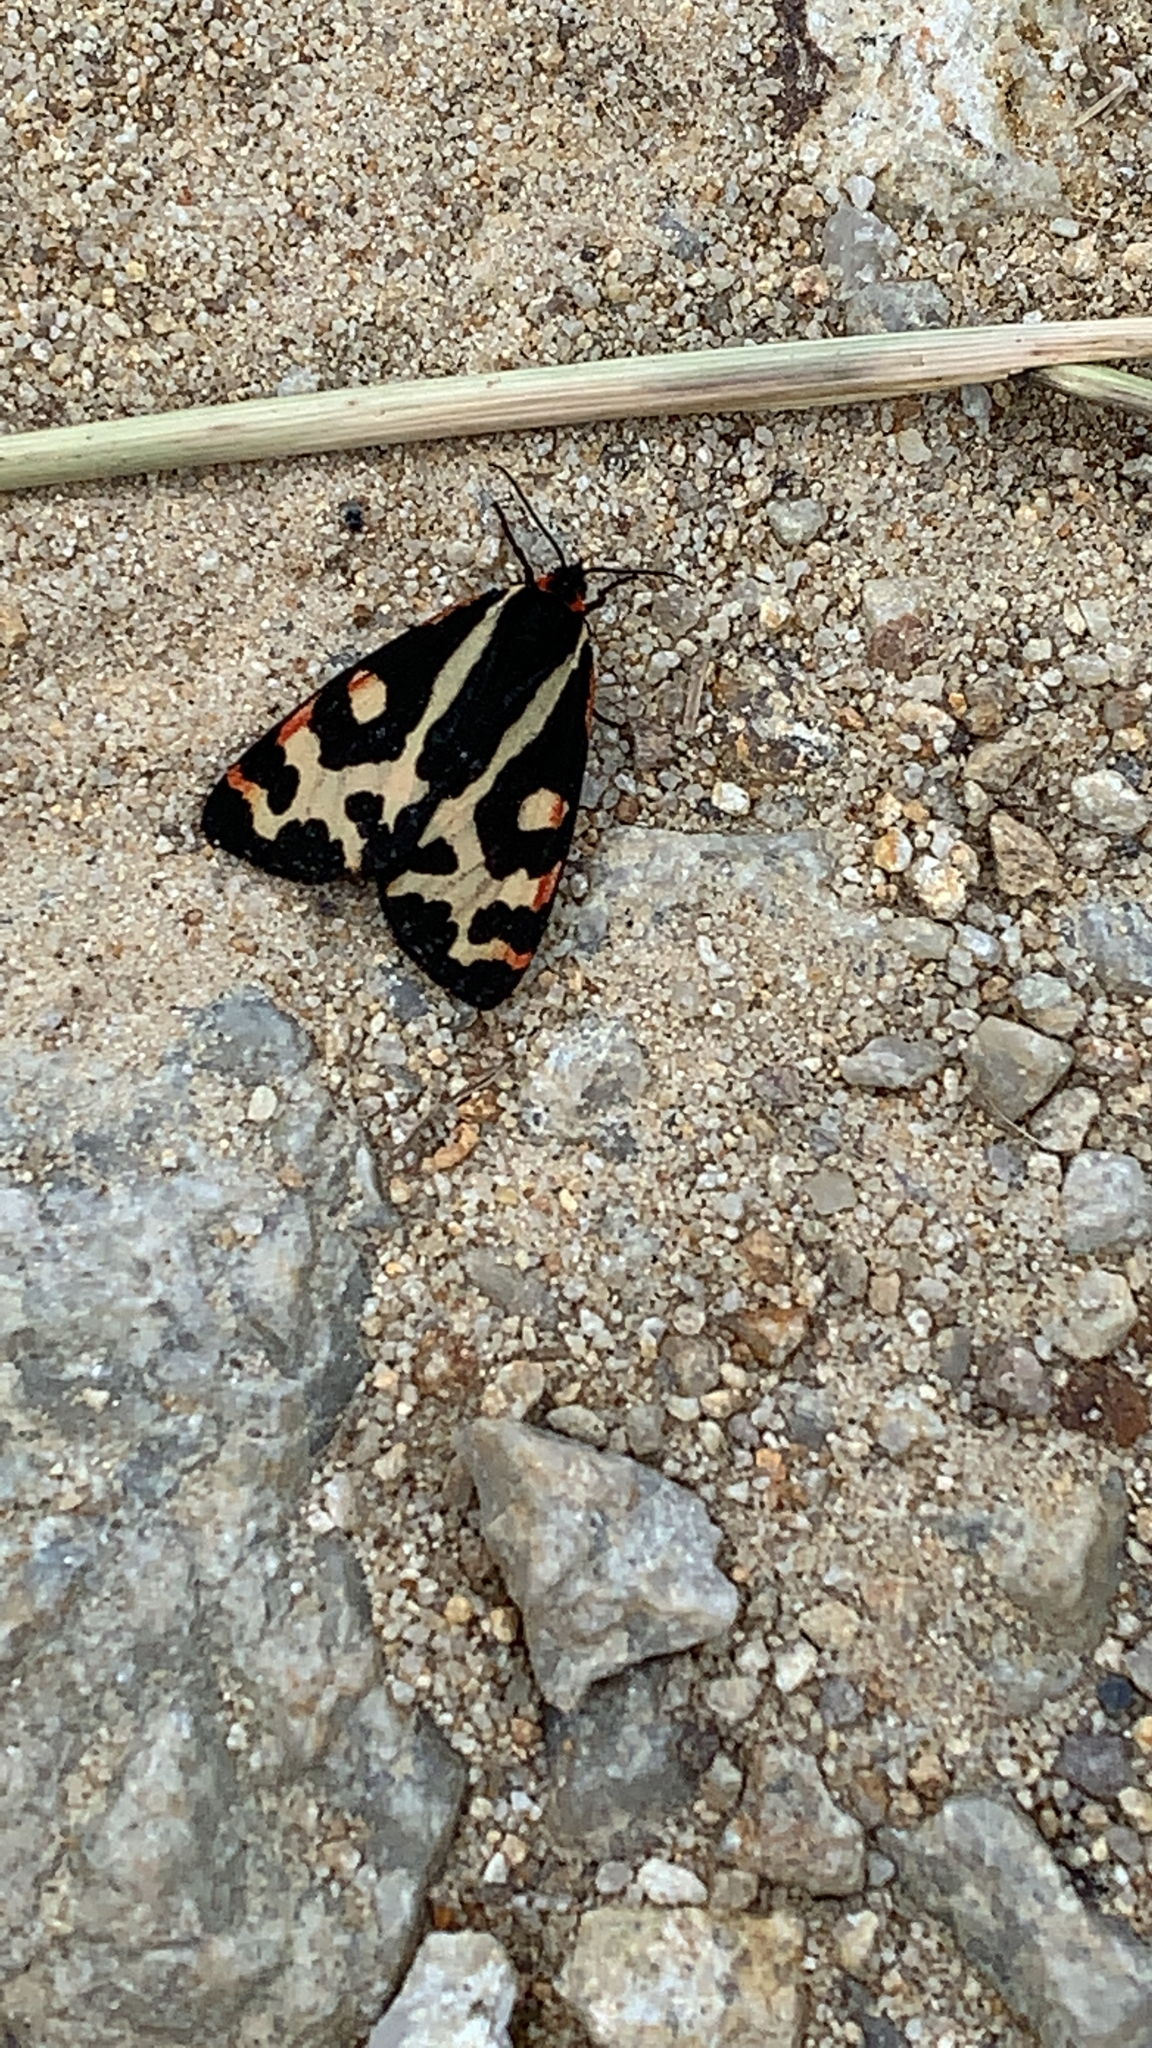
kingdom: Animalia
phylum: Arthropoda
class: Insecta
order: Lepidoptera
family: Erebidae
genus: Parasemia
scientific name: Parasemia plantaginis
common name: Wood tiger
